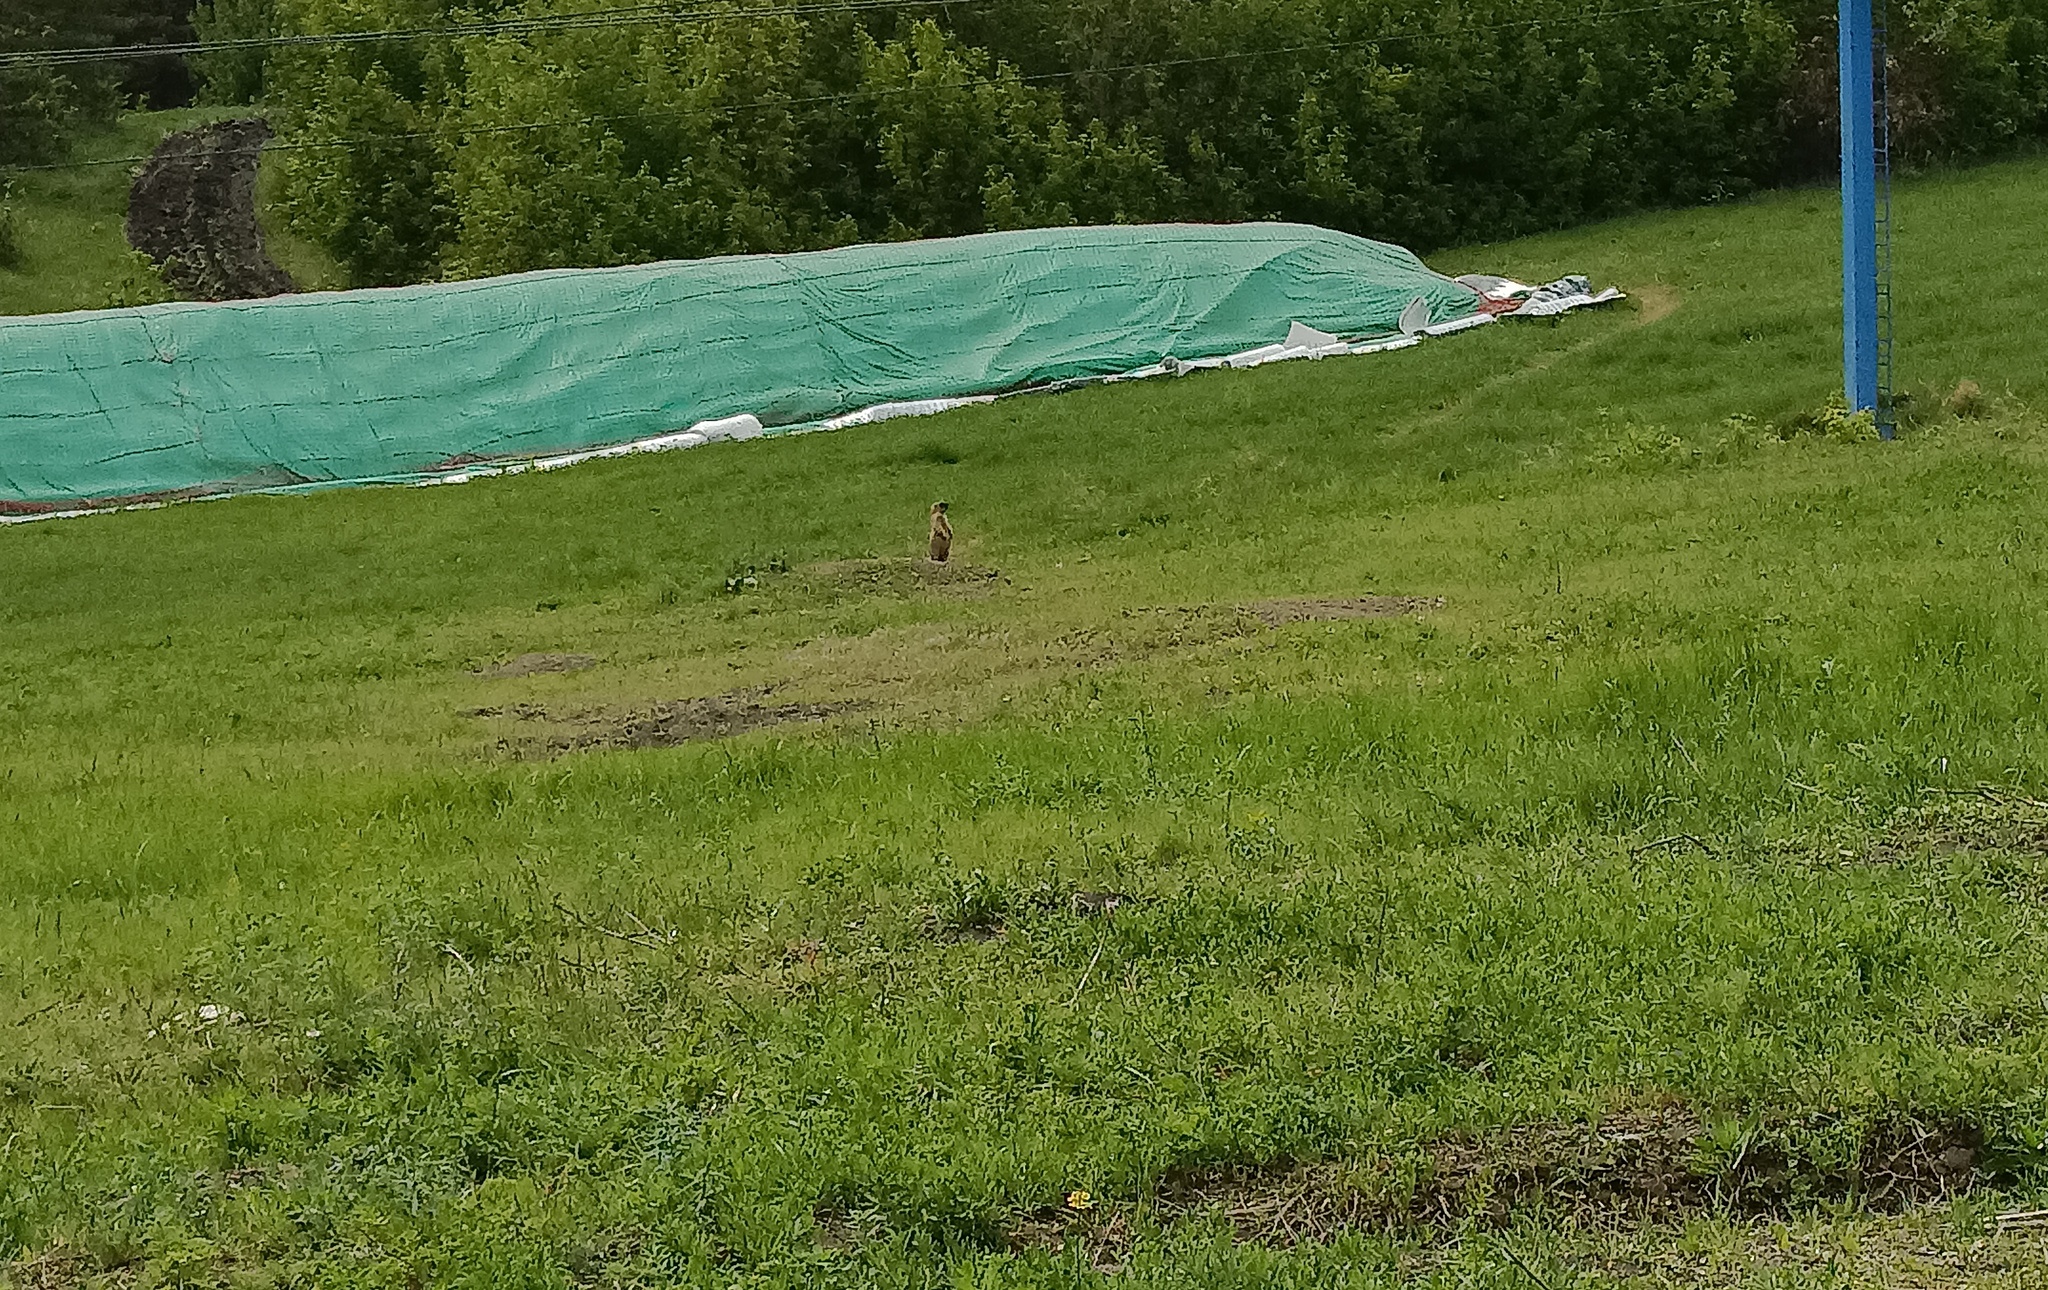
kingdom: Animalia
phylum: Chordata
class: Mammalia
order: Rodentia
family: Sciuridae
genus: Marmota
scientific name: Marmota bobak
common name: Bobak marmot
